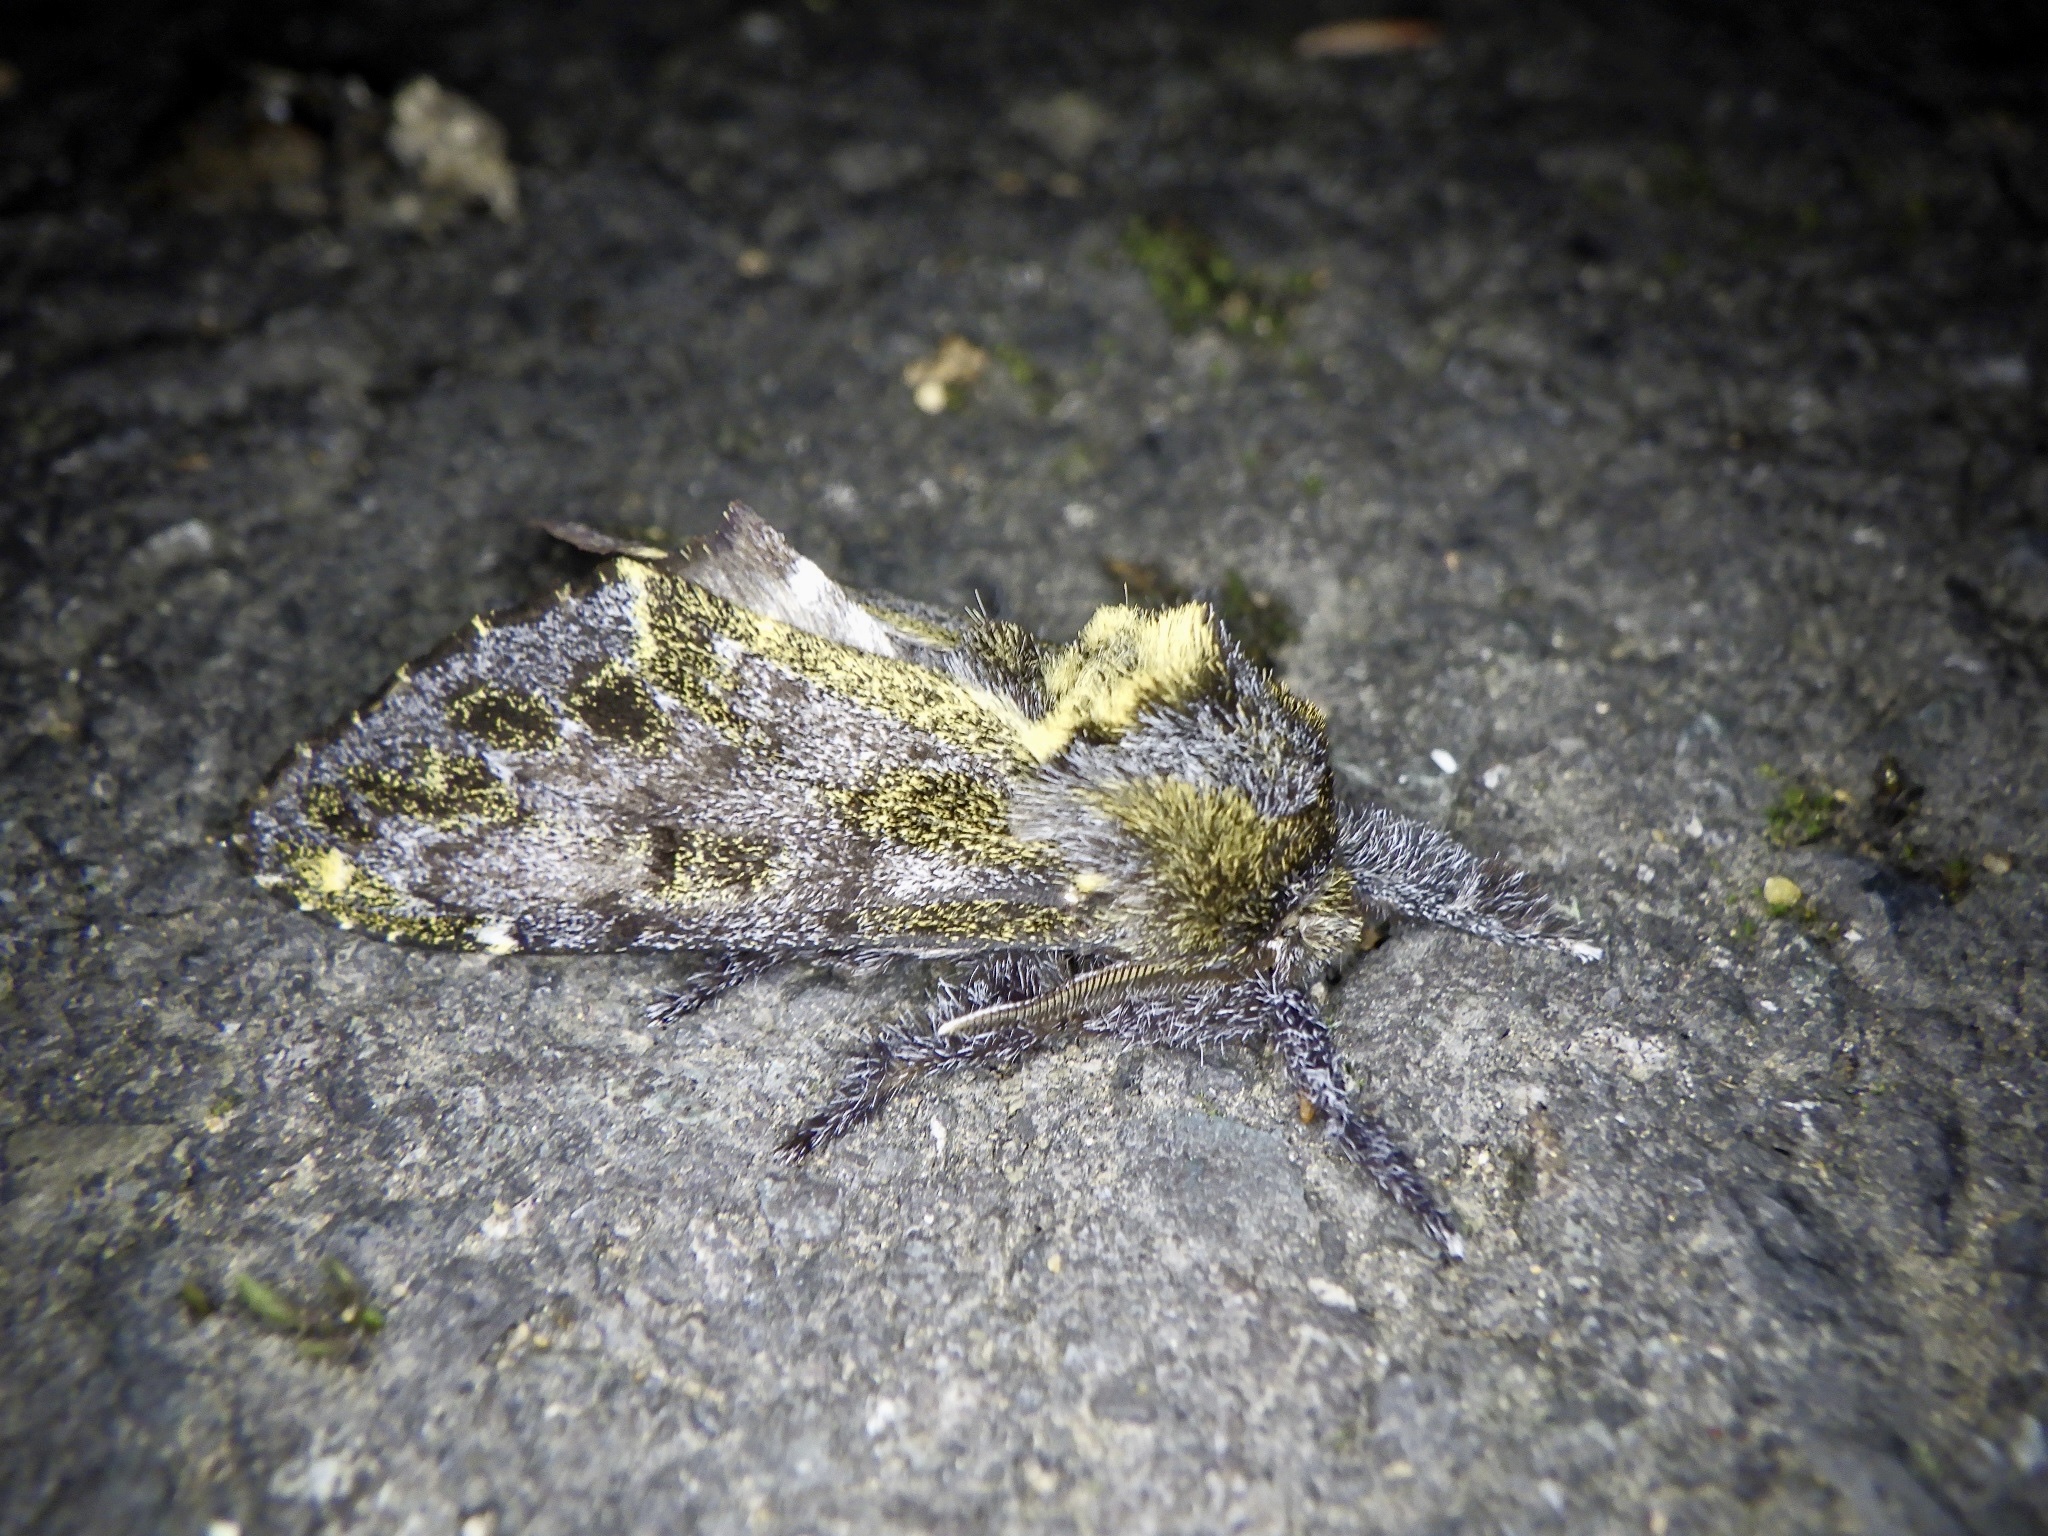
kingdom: Animalia
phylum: Arthropoda
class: Insecta
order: Lepidoptera
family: Notodontidae
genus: Zaranga
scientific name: Zaranga permagna
